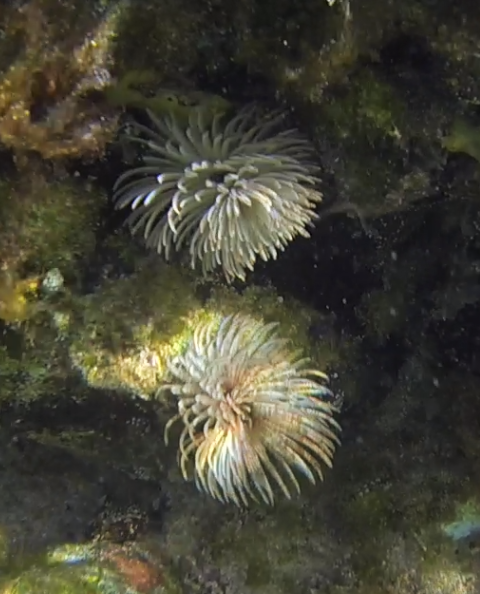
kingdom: Animalia
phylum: Annelida
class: Polychaeta
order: Sabellida
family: Sabellidae
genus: Sabellastarte
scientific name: Sabellastarte australiensis
